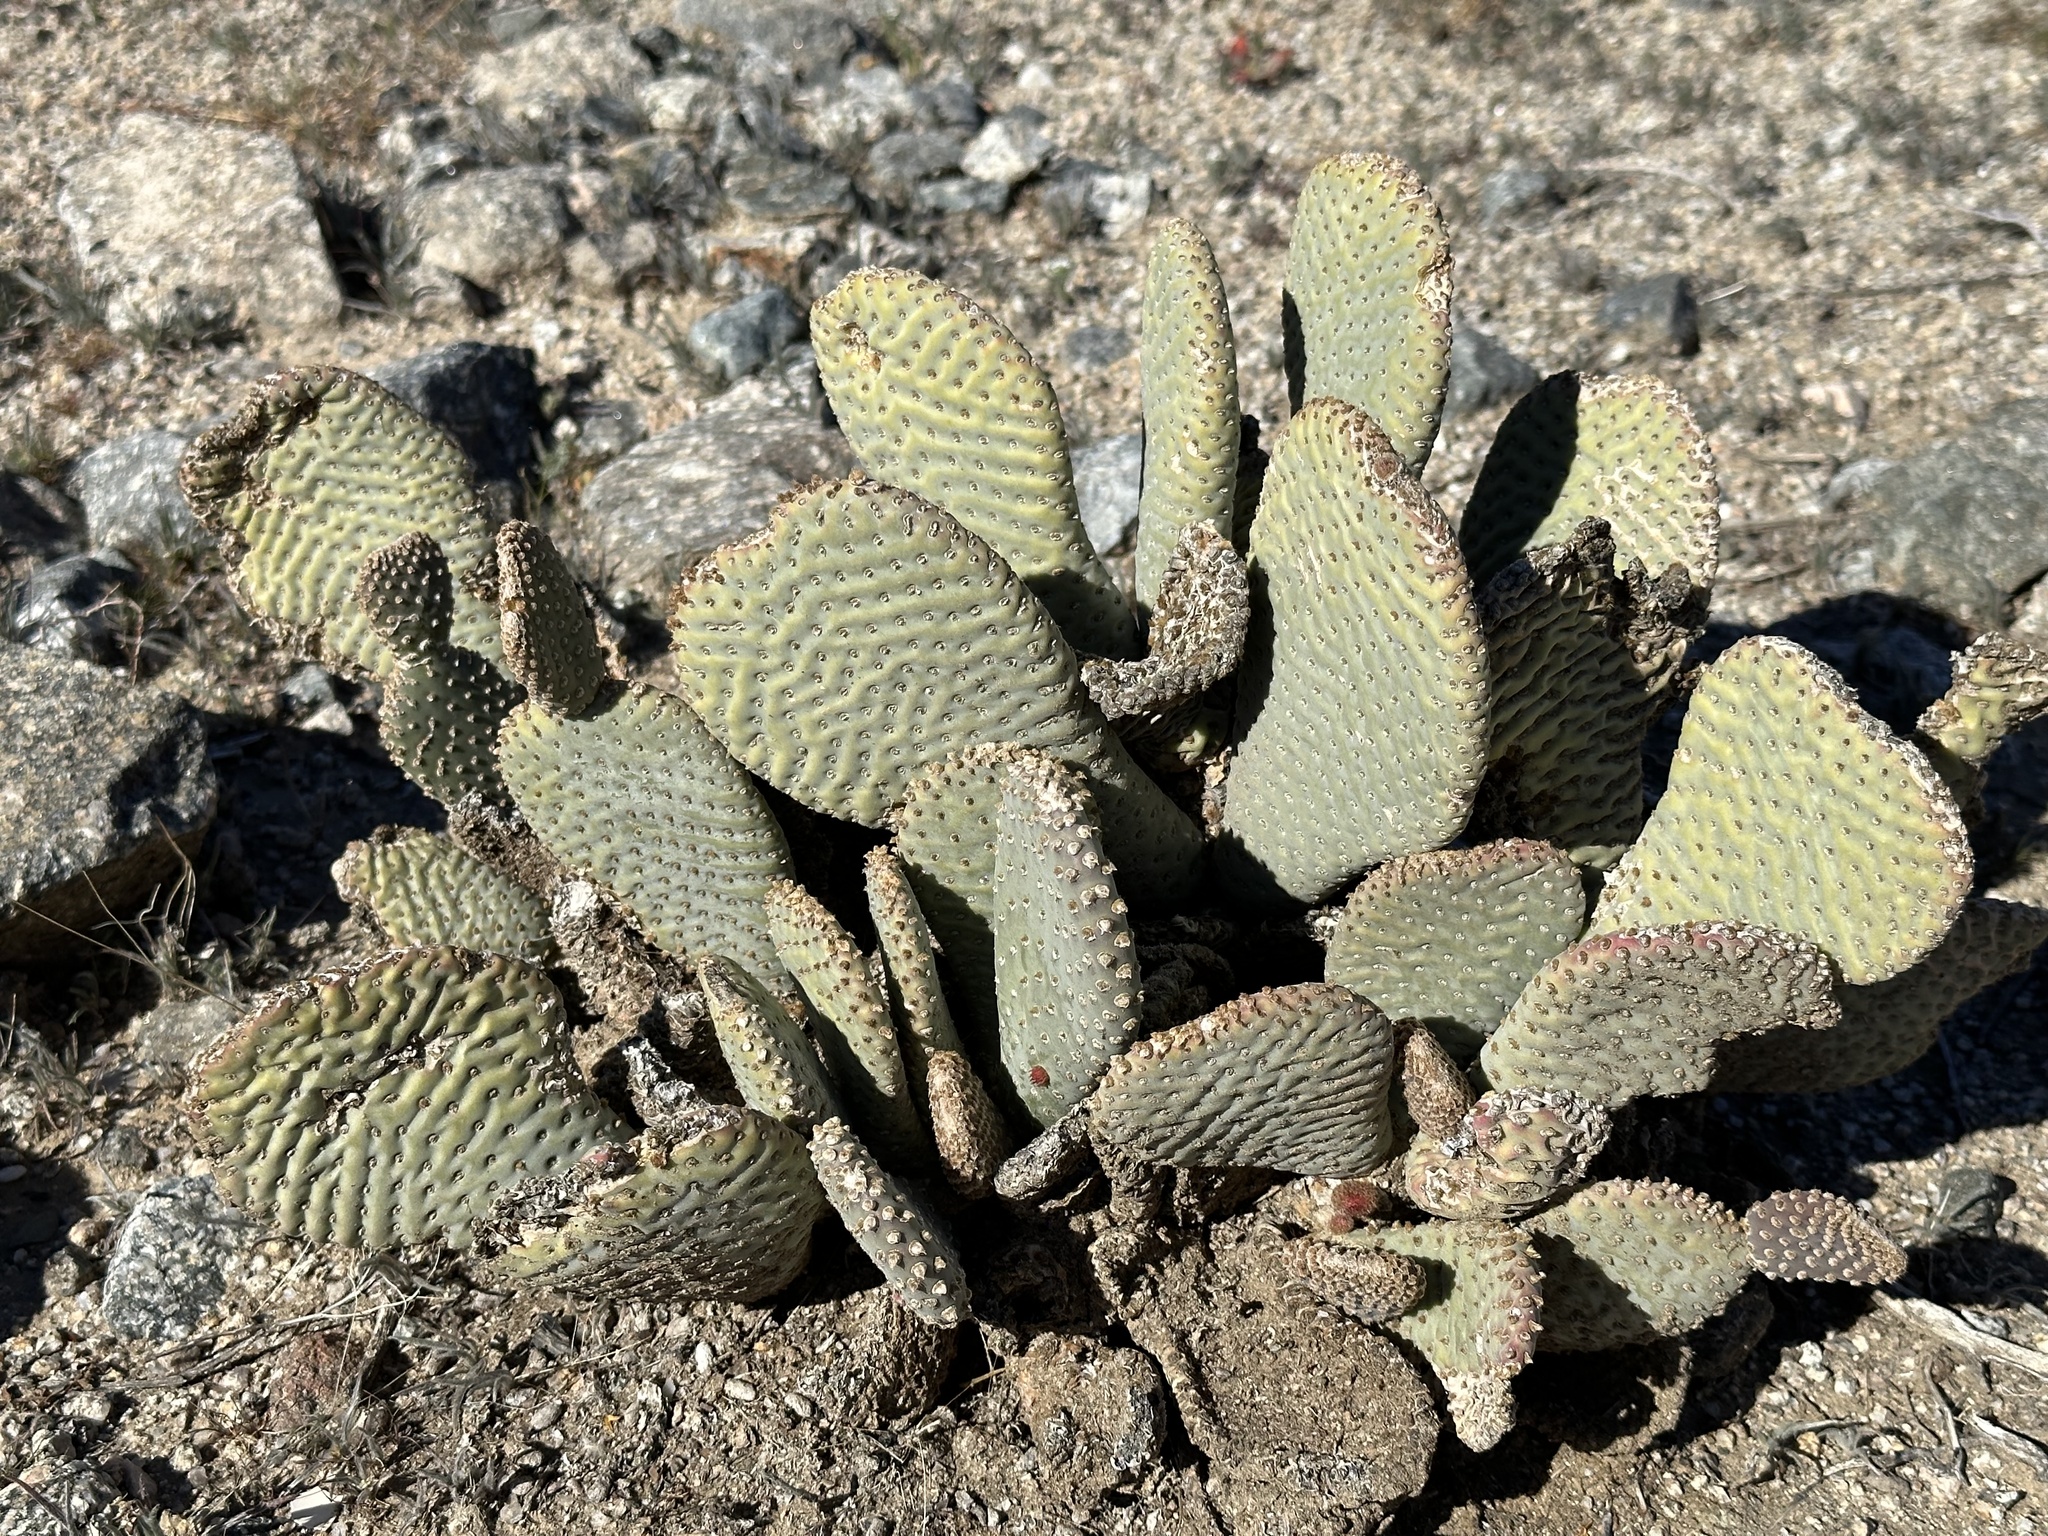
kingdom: Plantae
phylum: Tracheophyta
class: Magnoliopsida
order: Caryophyllales
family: Cactaceae
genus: Opuntia
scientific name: Opuntia basilaris
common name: Beavertail prickly-pear
